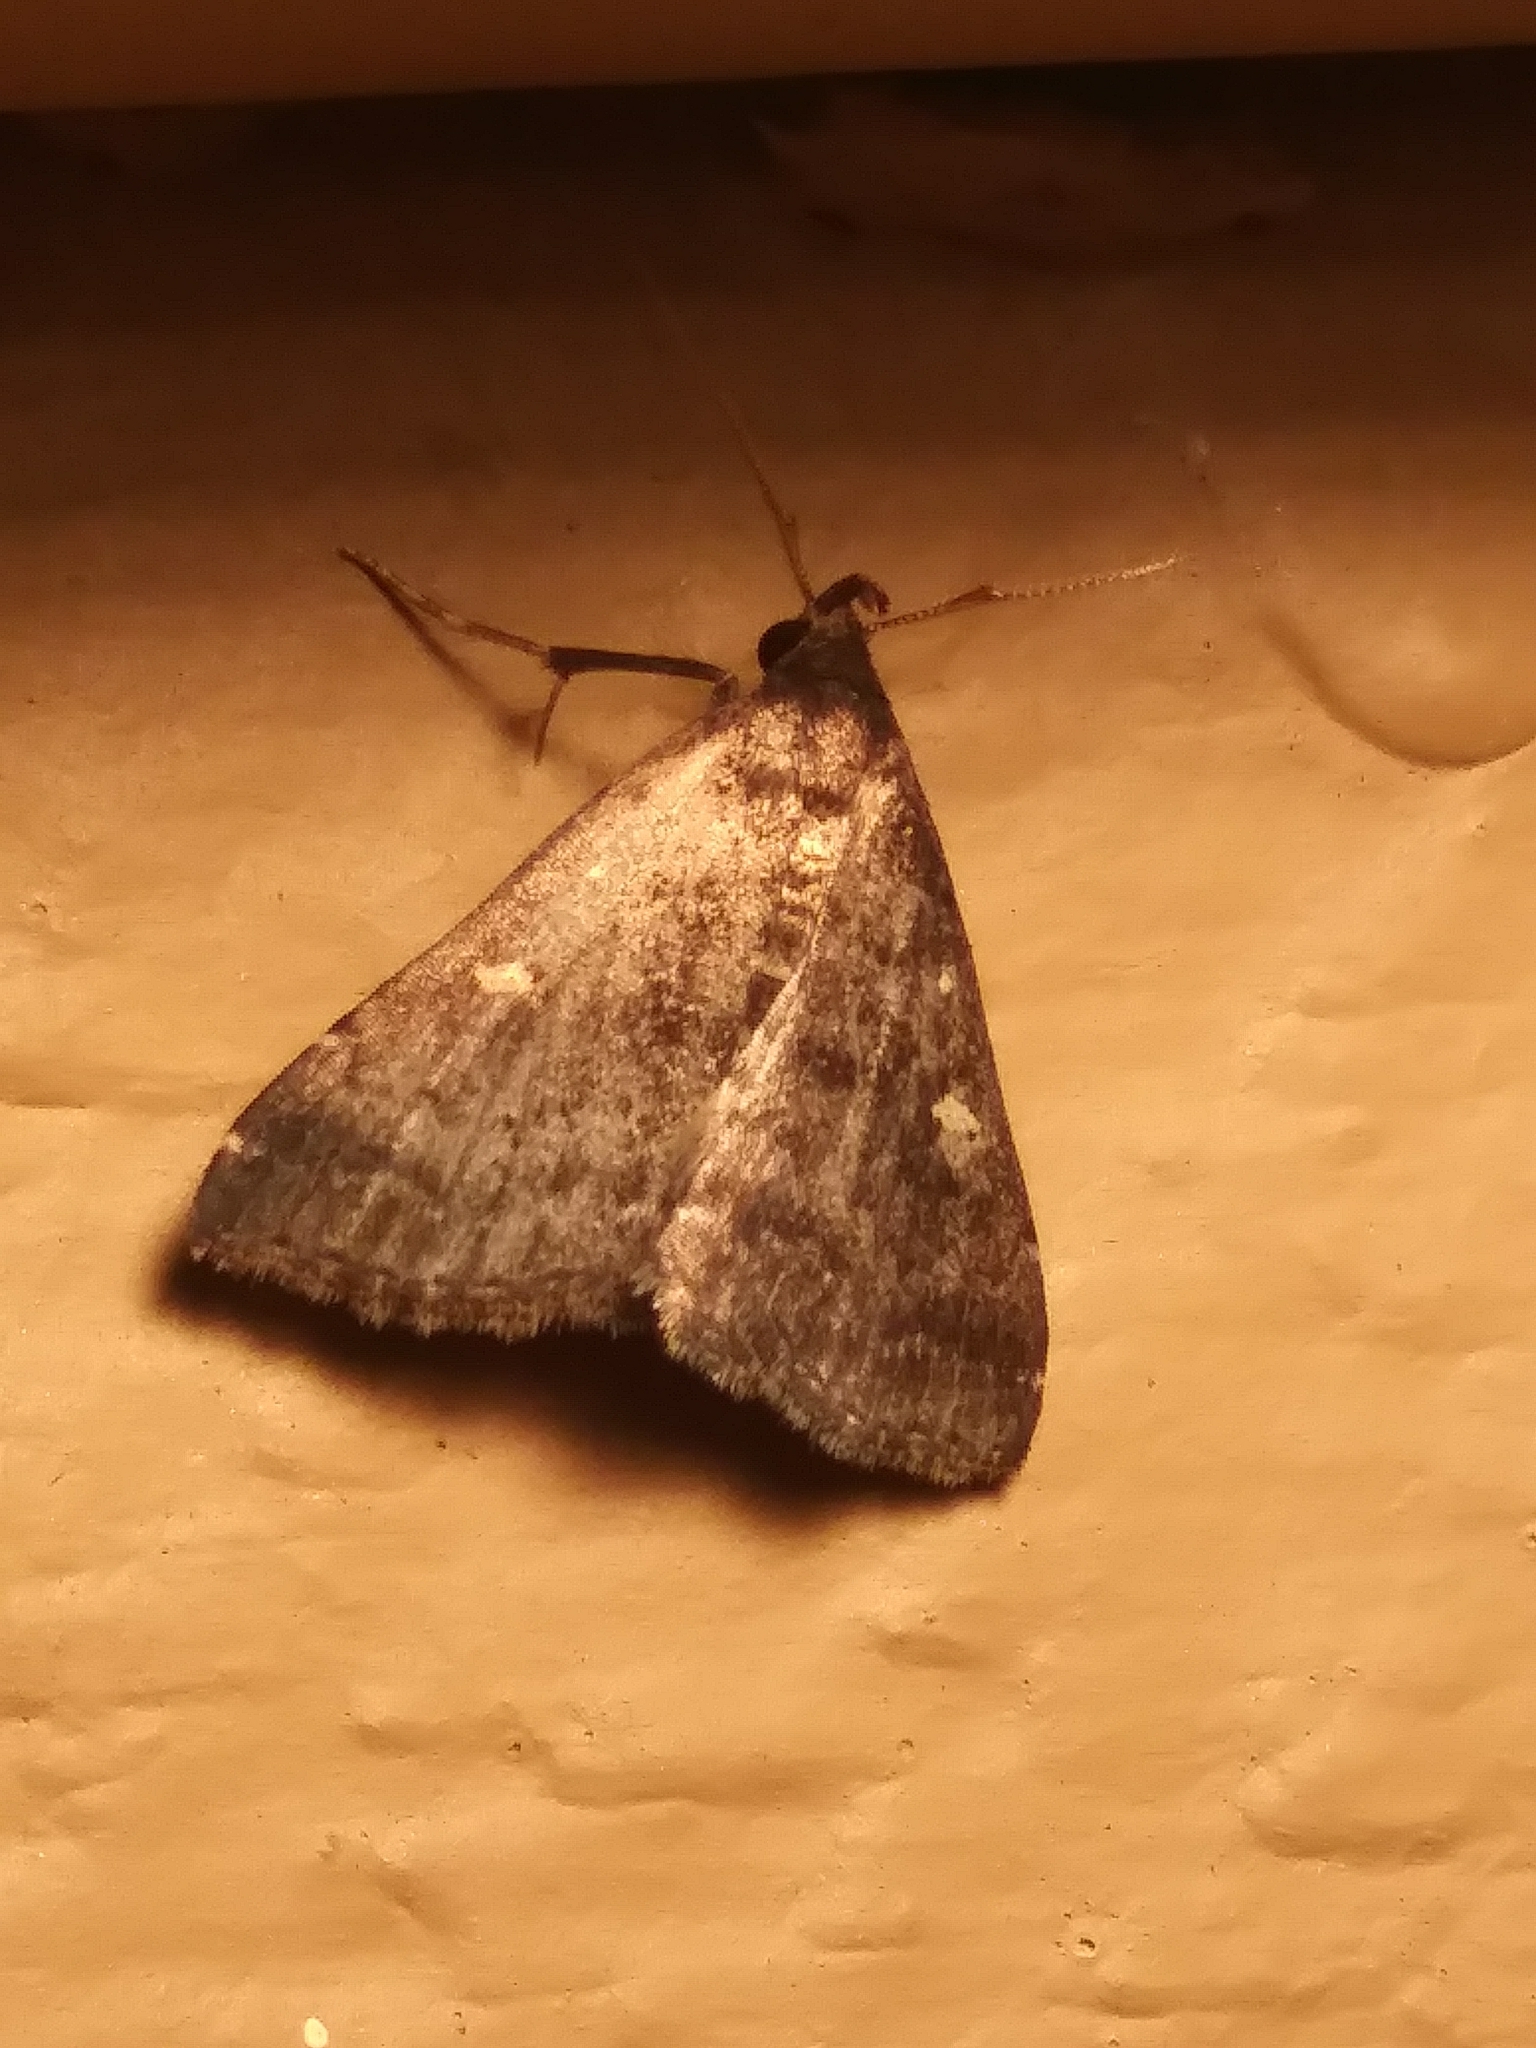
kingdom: Animalia
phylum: Arthropoda
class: Insecta
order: Lepidoptera
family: Erebidae
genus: Tetanolita
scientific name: Tetanolita mynesalis
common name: Smoky tetanolita moth
